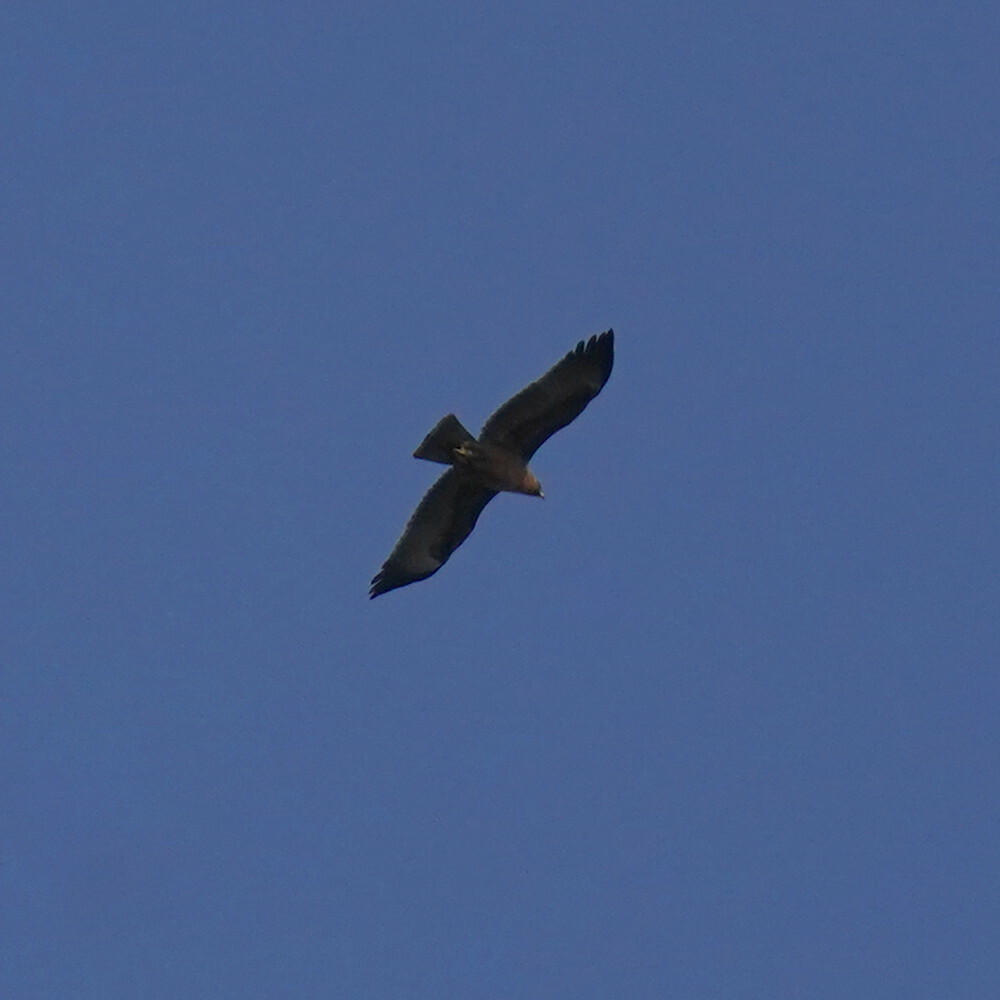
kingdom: Animalia
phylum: Chordata
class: Aves
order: Accipitriformes
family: Accipitridae
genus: Hieraaetus
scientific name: Hieraaetus wahlbergi
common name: Wahlberg's eagle
